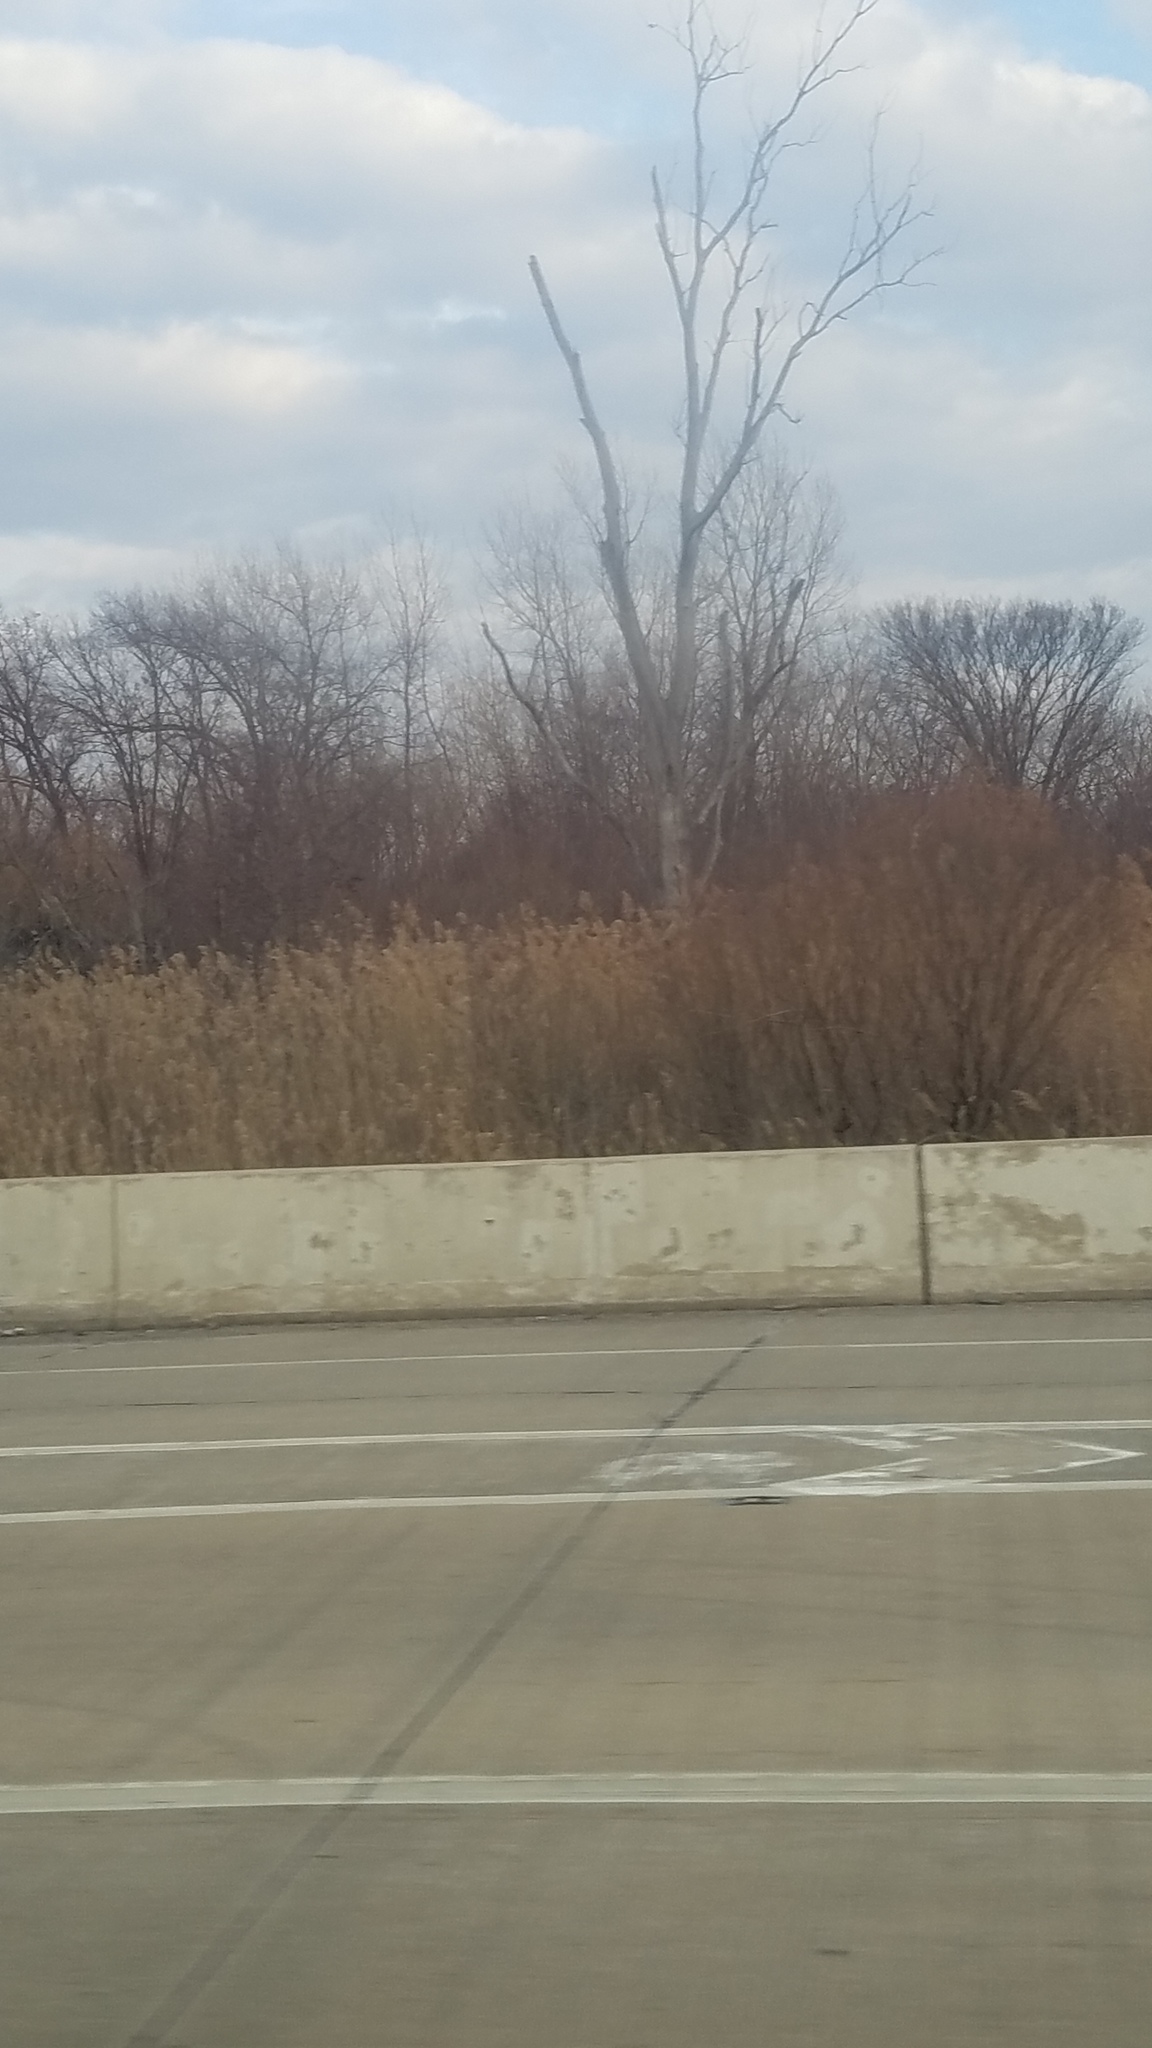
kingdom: Plantae
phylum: Tracheophyta
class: Liliopsida
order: Poales
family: Poaceae
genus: Phragmites
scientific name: Phragmites australis
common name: Common reed
